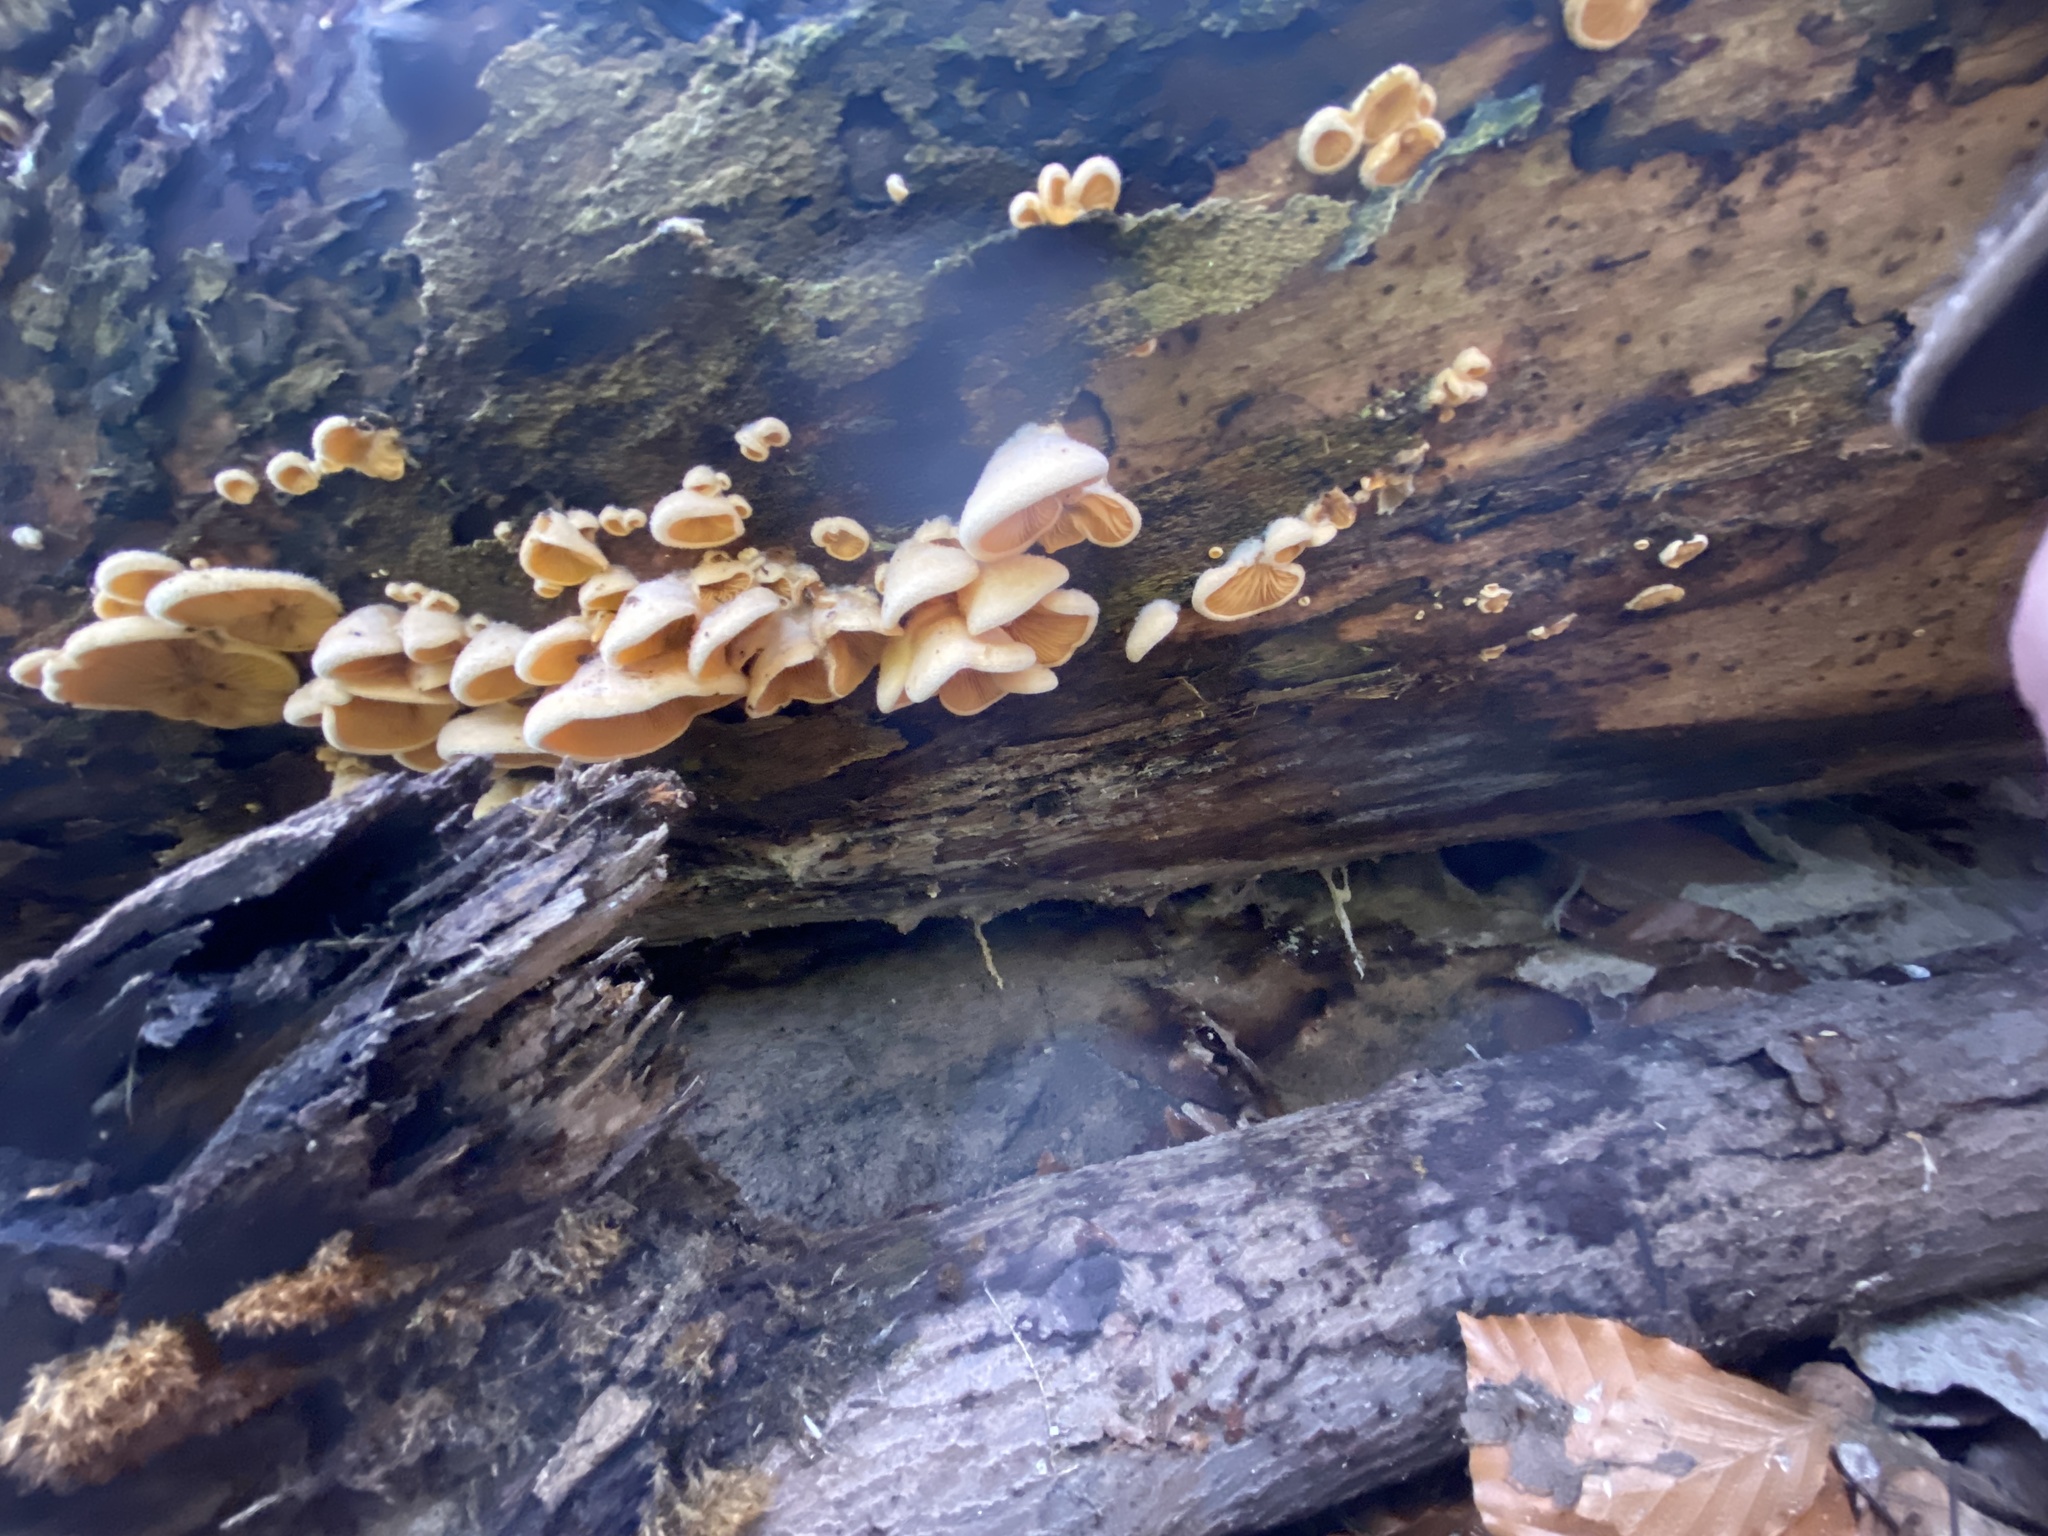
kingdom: Fungi
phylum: Basidiomycota
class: Agaricomycetes
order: Agaricales
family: Phyllotopsidaceae
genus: Phyllotopsis
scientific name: Phyllotopsis nidulans
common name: Orange mock oyster
